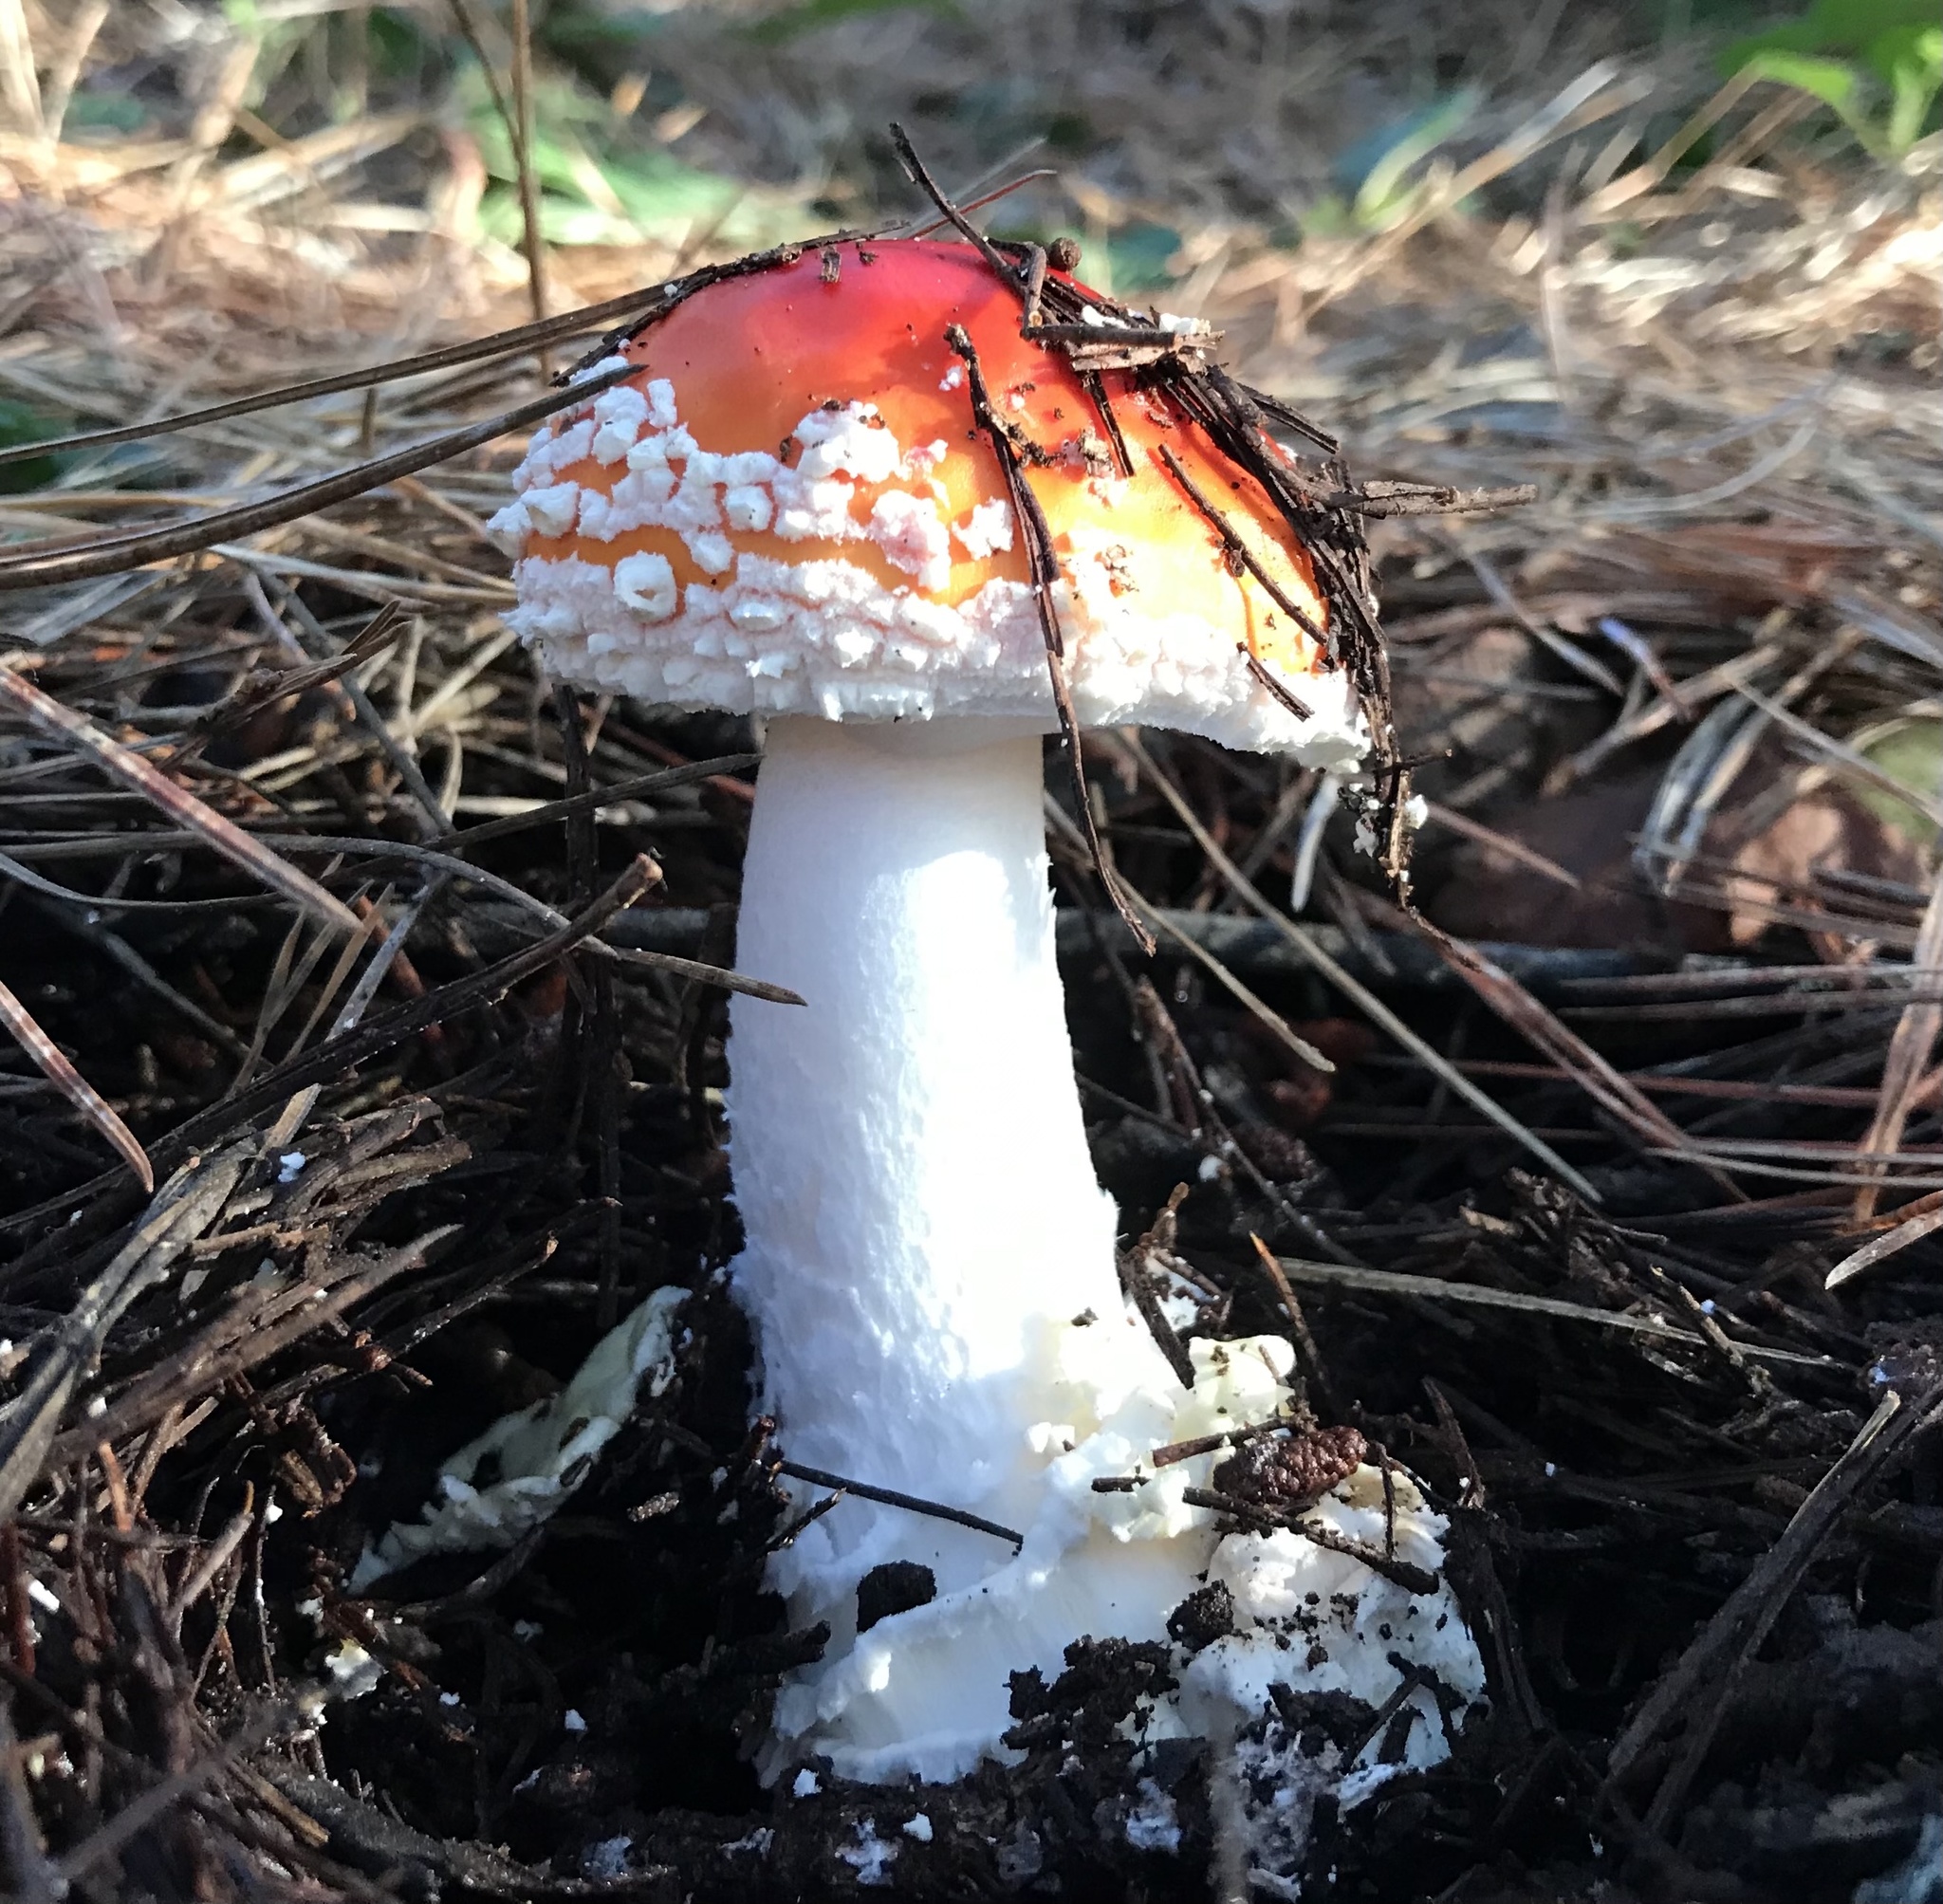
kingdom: Fungi
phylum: Basidiomycota
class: Agaricomycetes
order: Agaricales
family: Amanitaceae
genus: Amanita
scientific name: Amanita muscaria
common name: Fly agaric
